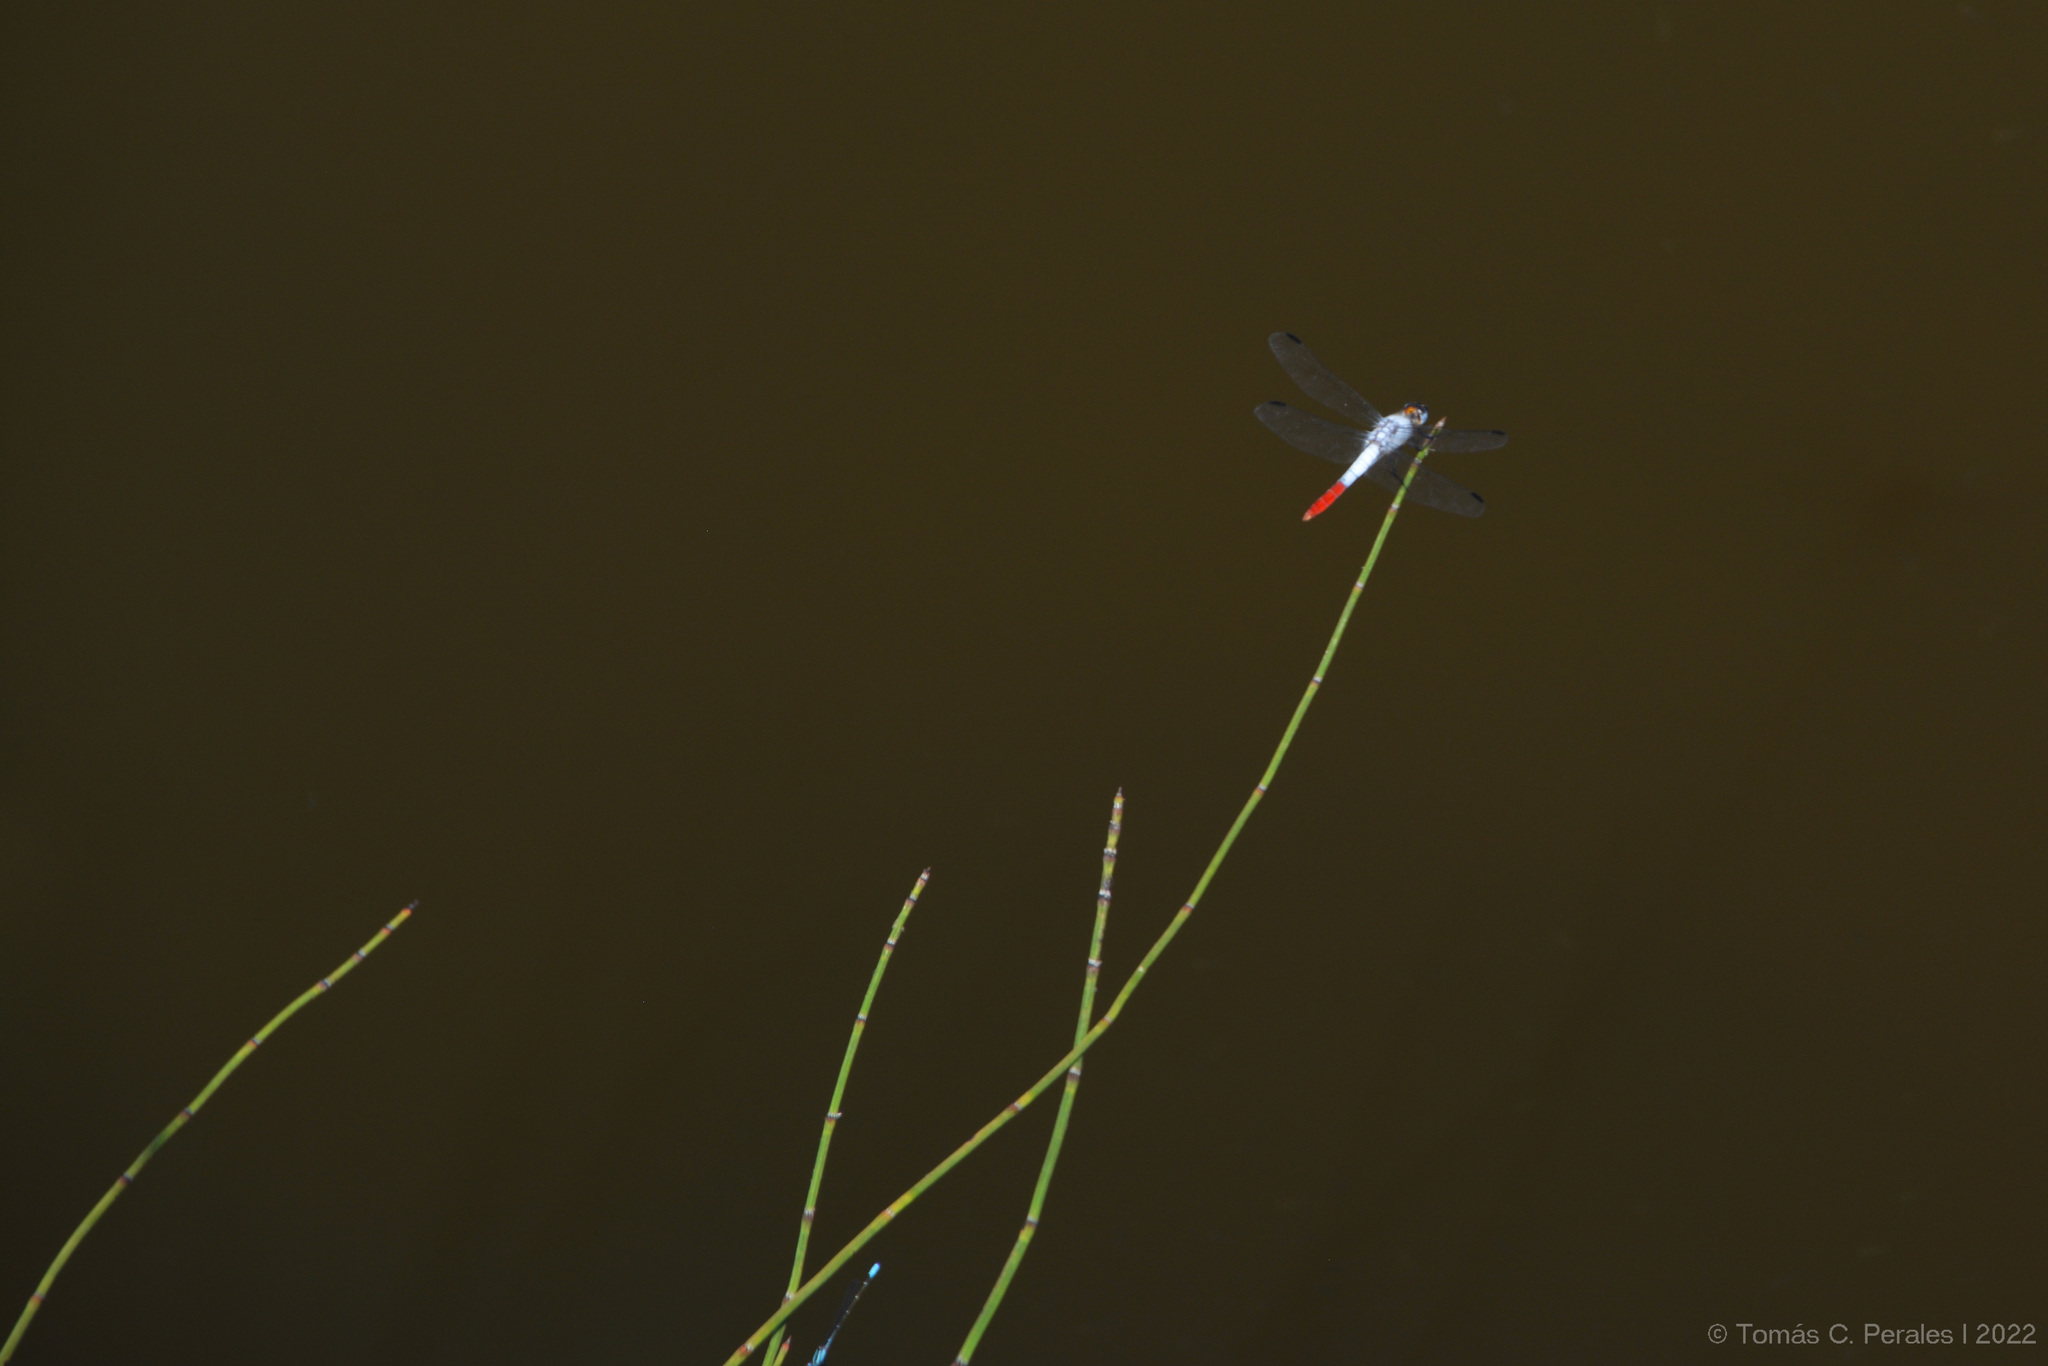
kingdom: Animalia
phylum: Arthropoda
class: Insecta
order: Odonata
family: Libellulidae
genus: Planiplax
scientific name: Planiplax erythropyga
